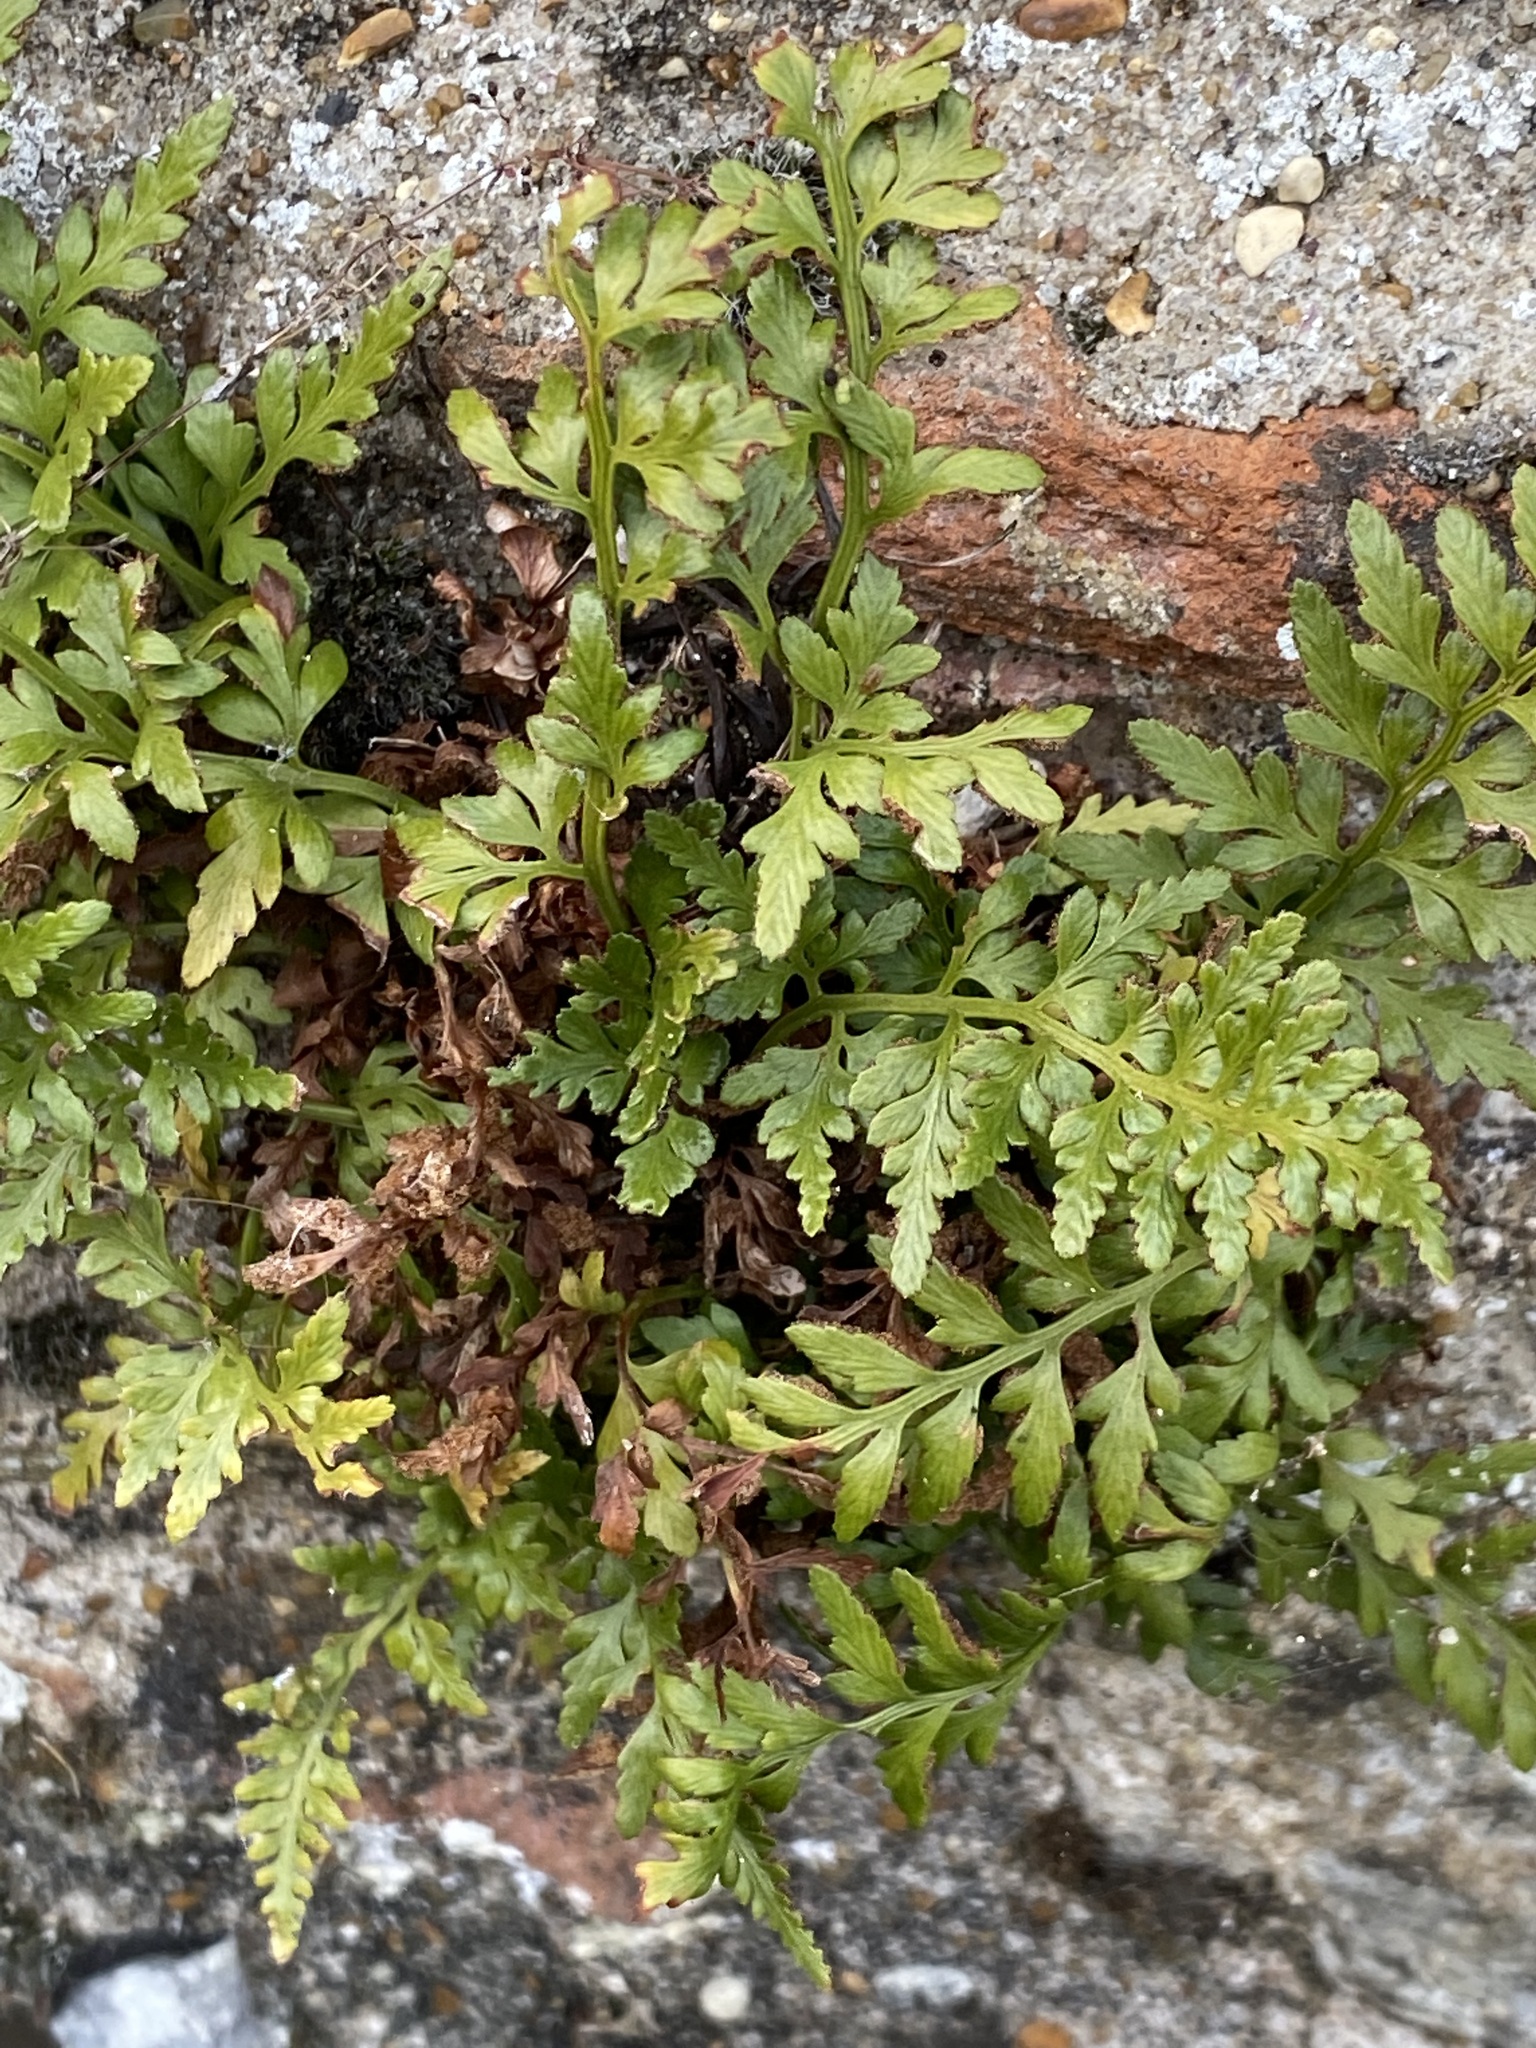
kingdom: Plantae
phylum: Tracheophyta
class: Polypodiopsida
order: Polypodiales
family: Aspleniaceae
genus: Asplenium
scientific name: Asplenium adiantum-nigrum
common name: Black spleenwort
